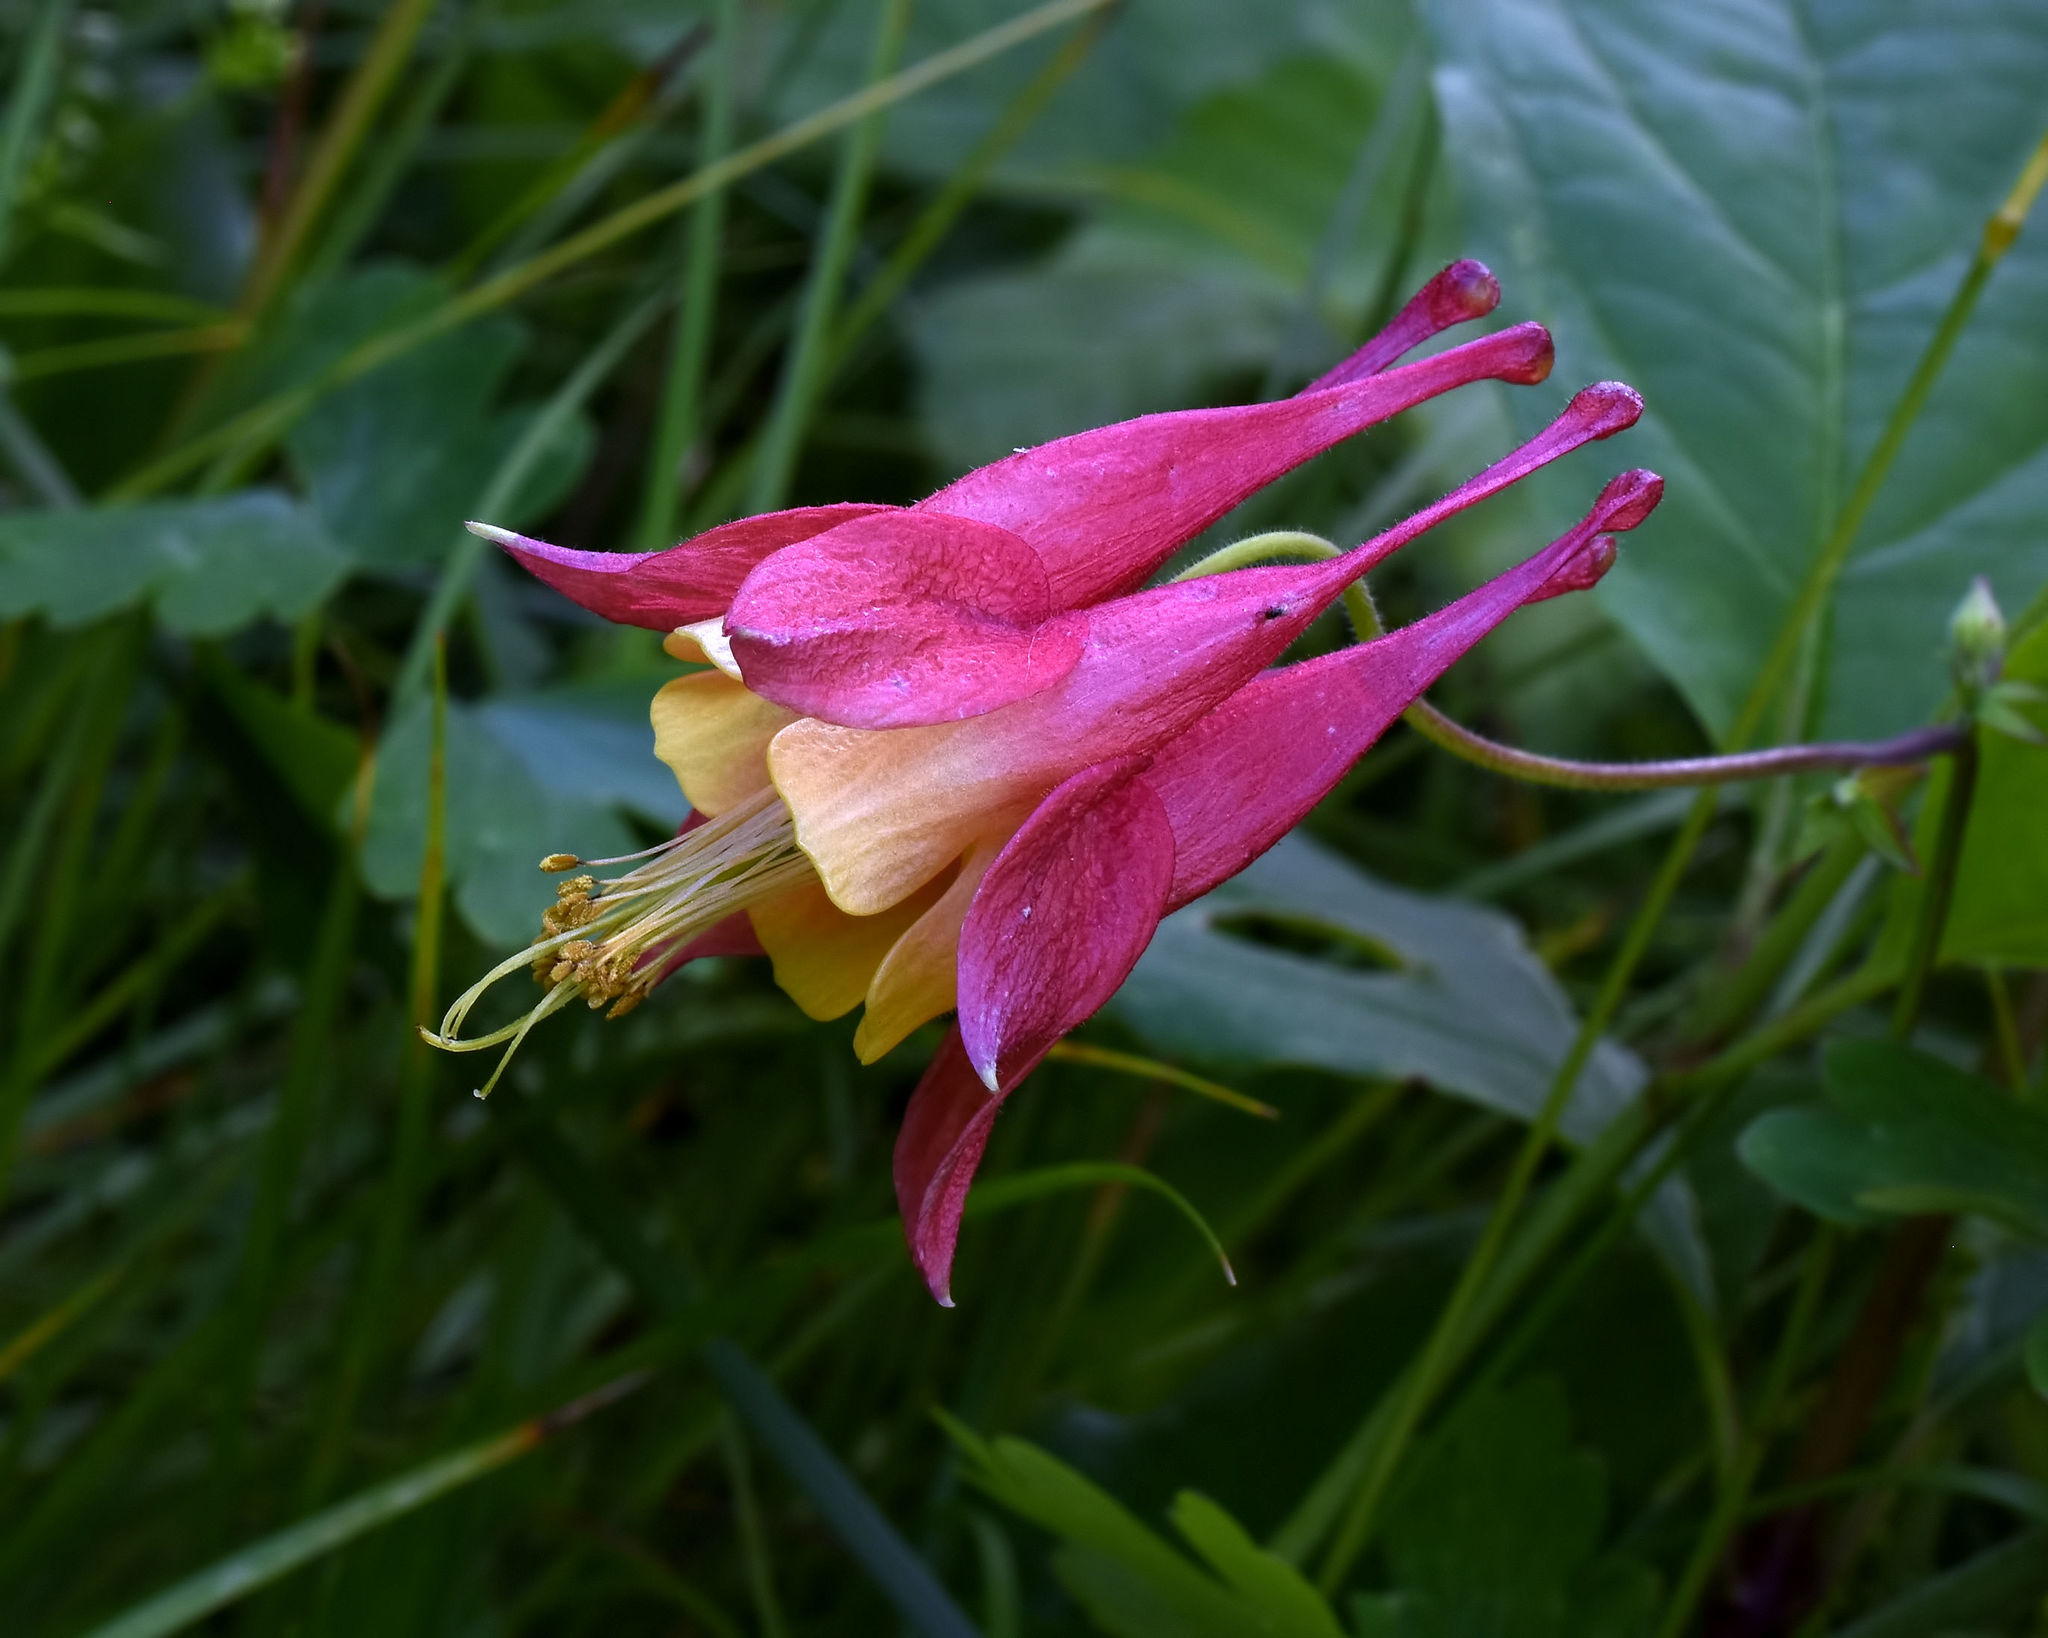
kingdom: Plantae
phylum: Tracheophyta
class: Magnoliopsida
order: Ranunculales
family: Ranunculaceae
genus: Aquilegia
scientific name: Aquilegia canadensis
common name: American columbine
